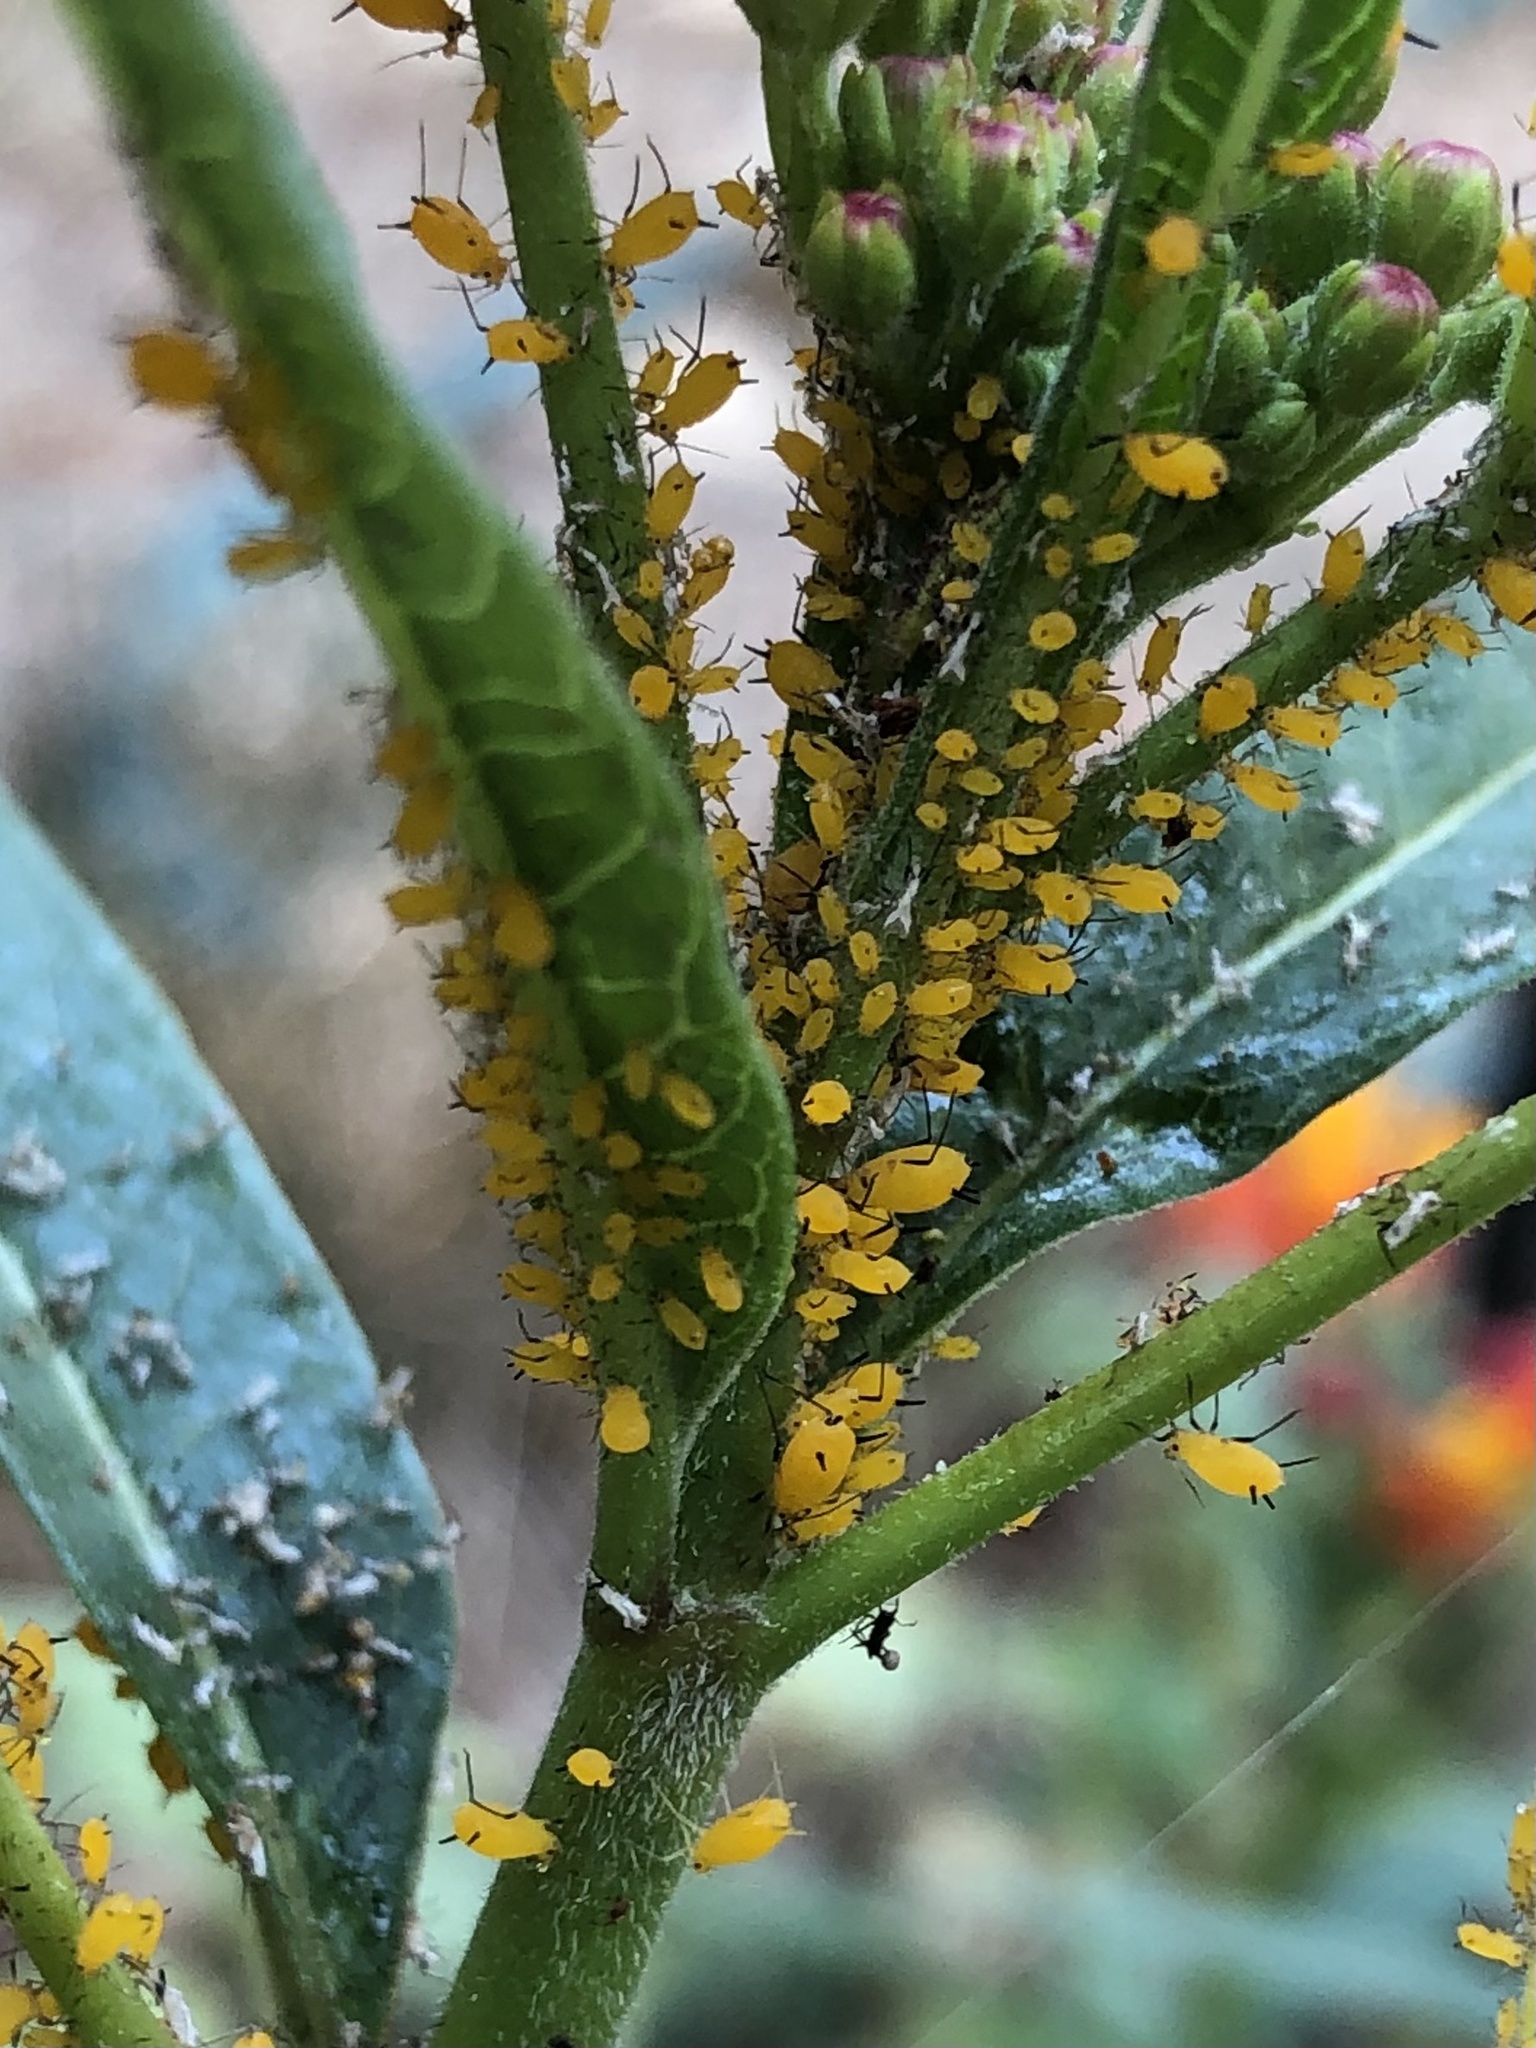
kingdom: Animalia
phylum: Arthropoda
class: Insecta
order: Hemiptera
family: Aphididae
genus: Aphis
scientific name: Aphis nerii
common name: Oleander aphid
